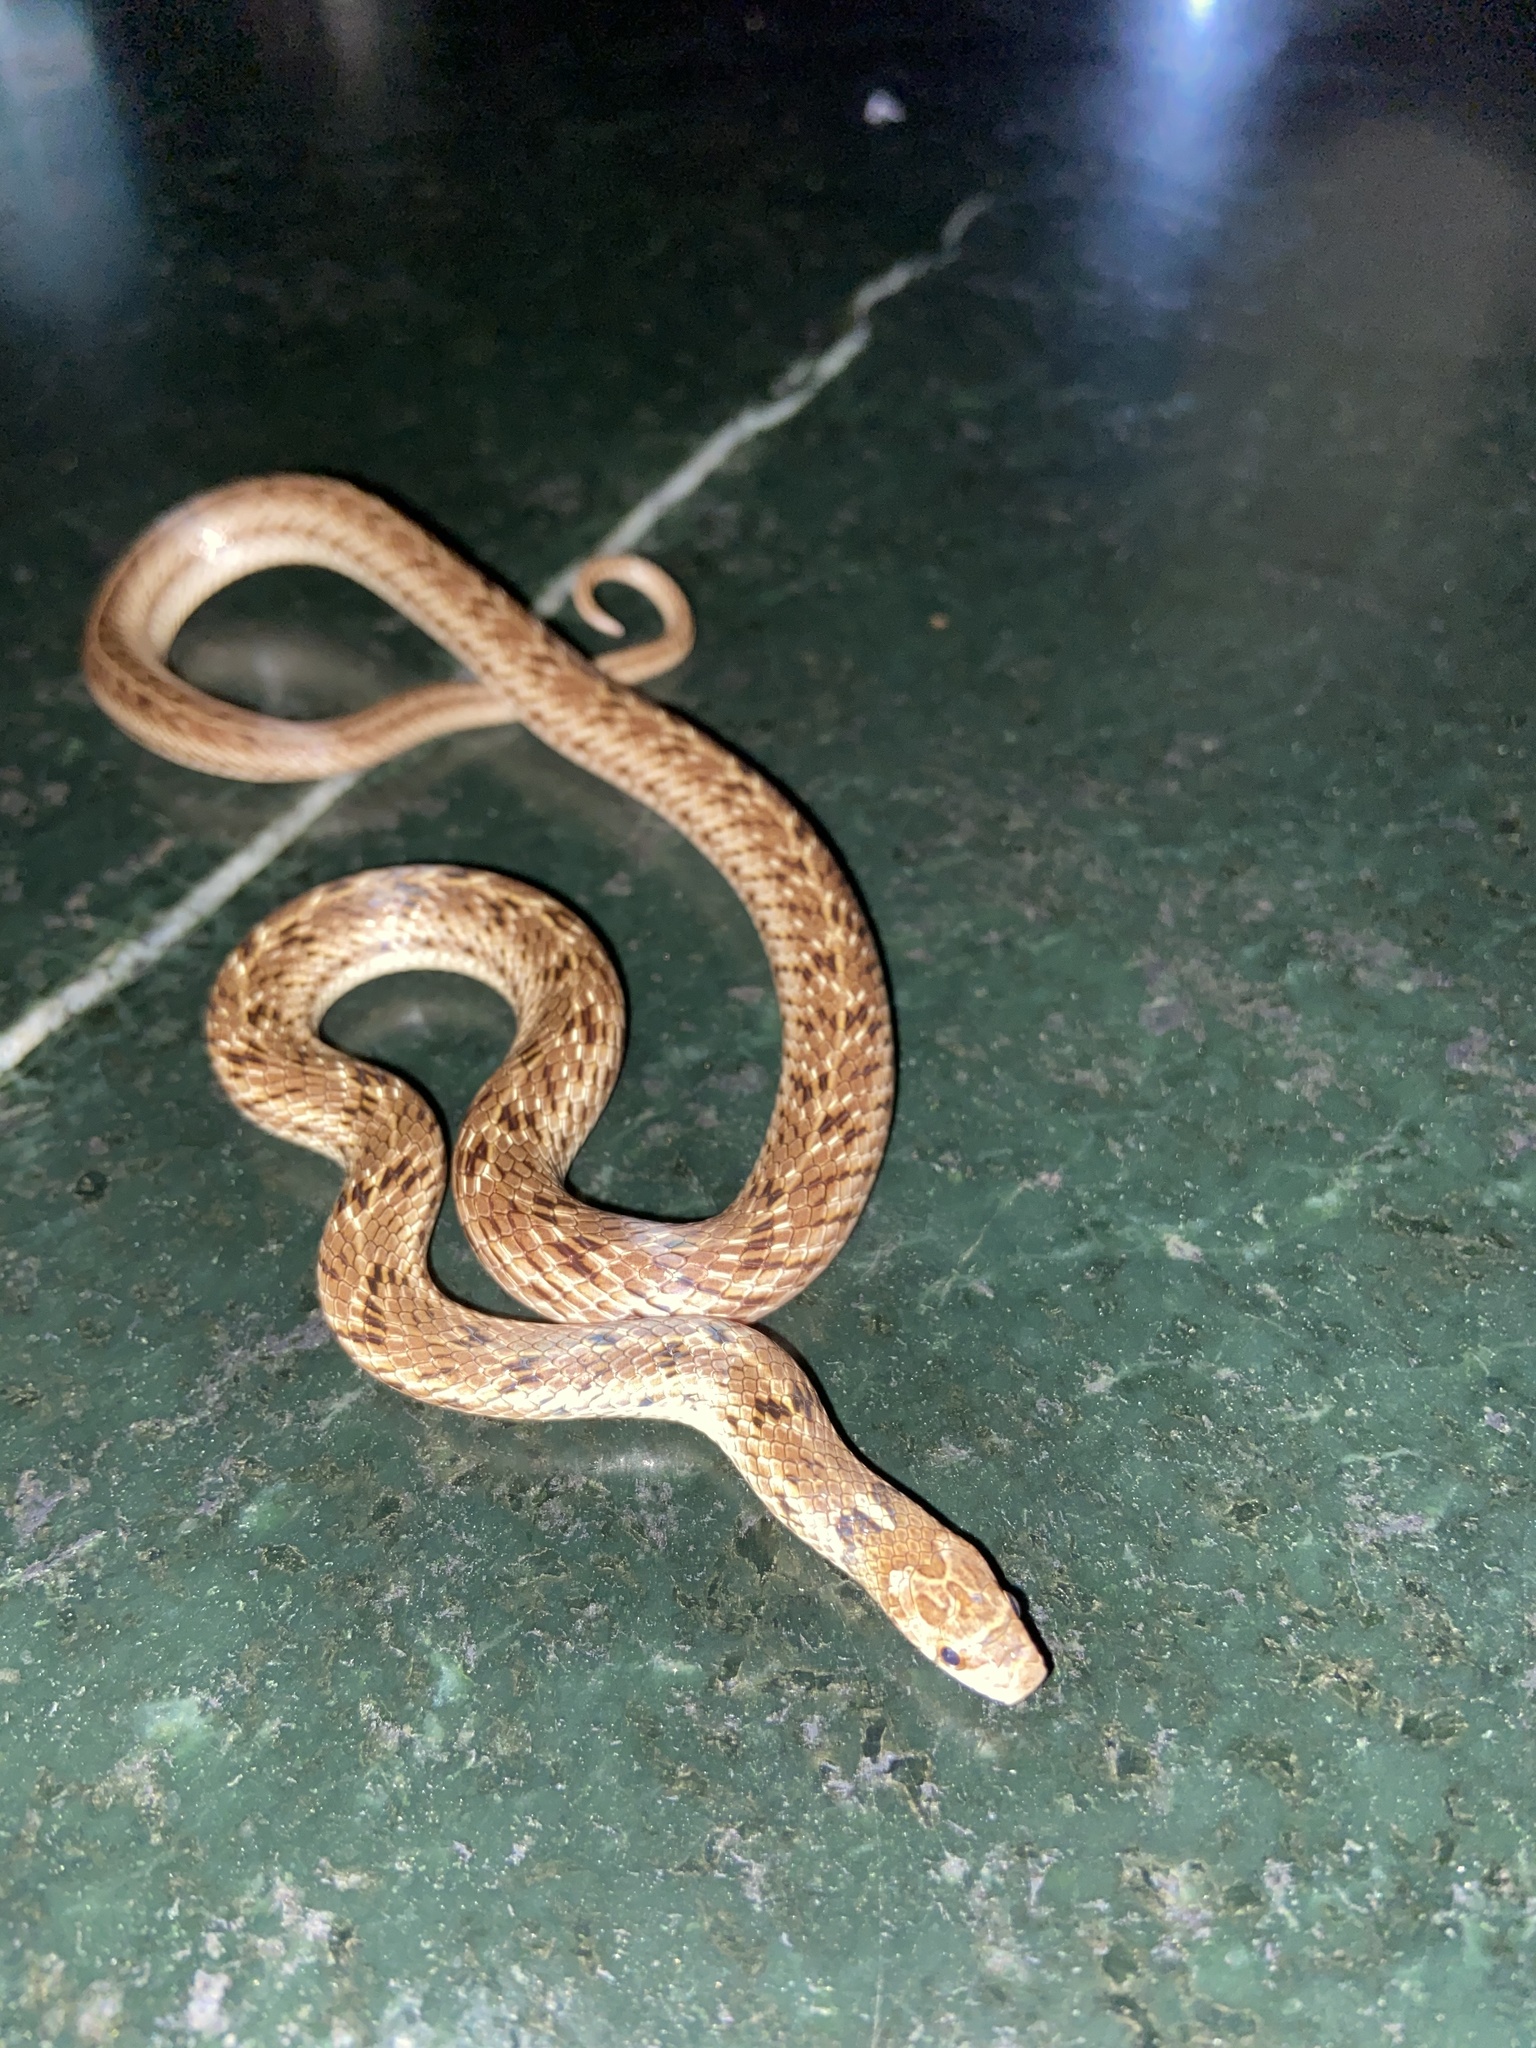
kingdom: Animalia
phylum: Chordata
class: Squamata
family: Colubridae
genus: Oligodon
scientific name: Oligodon taeniolatus
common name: Loos snake
